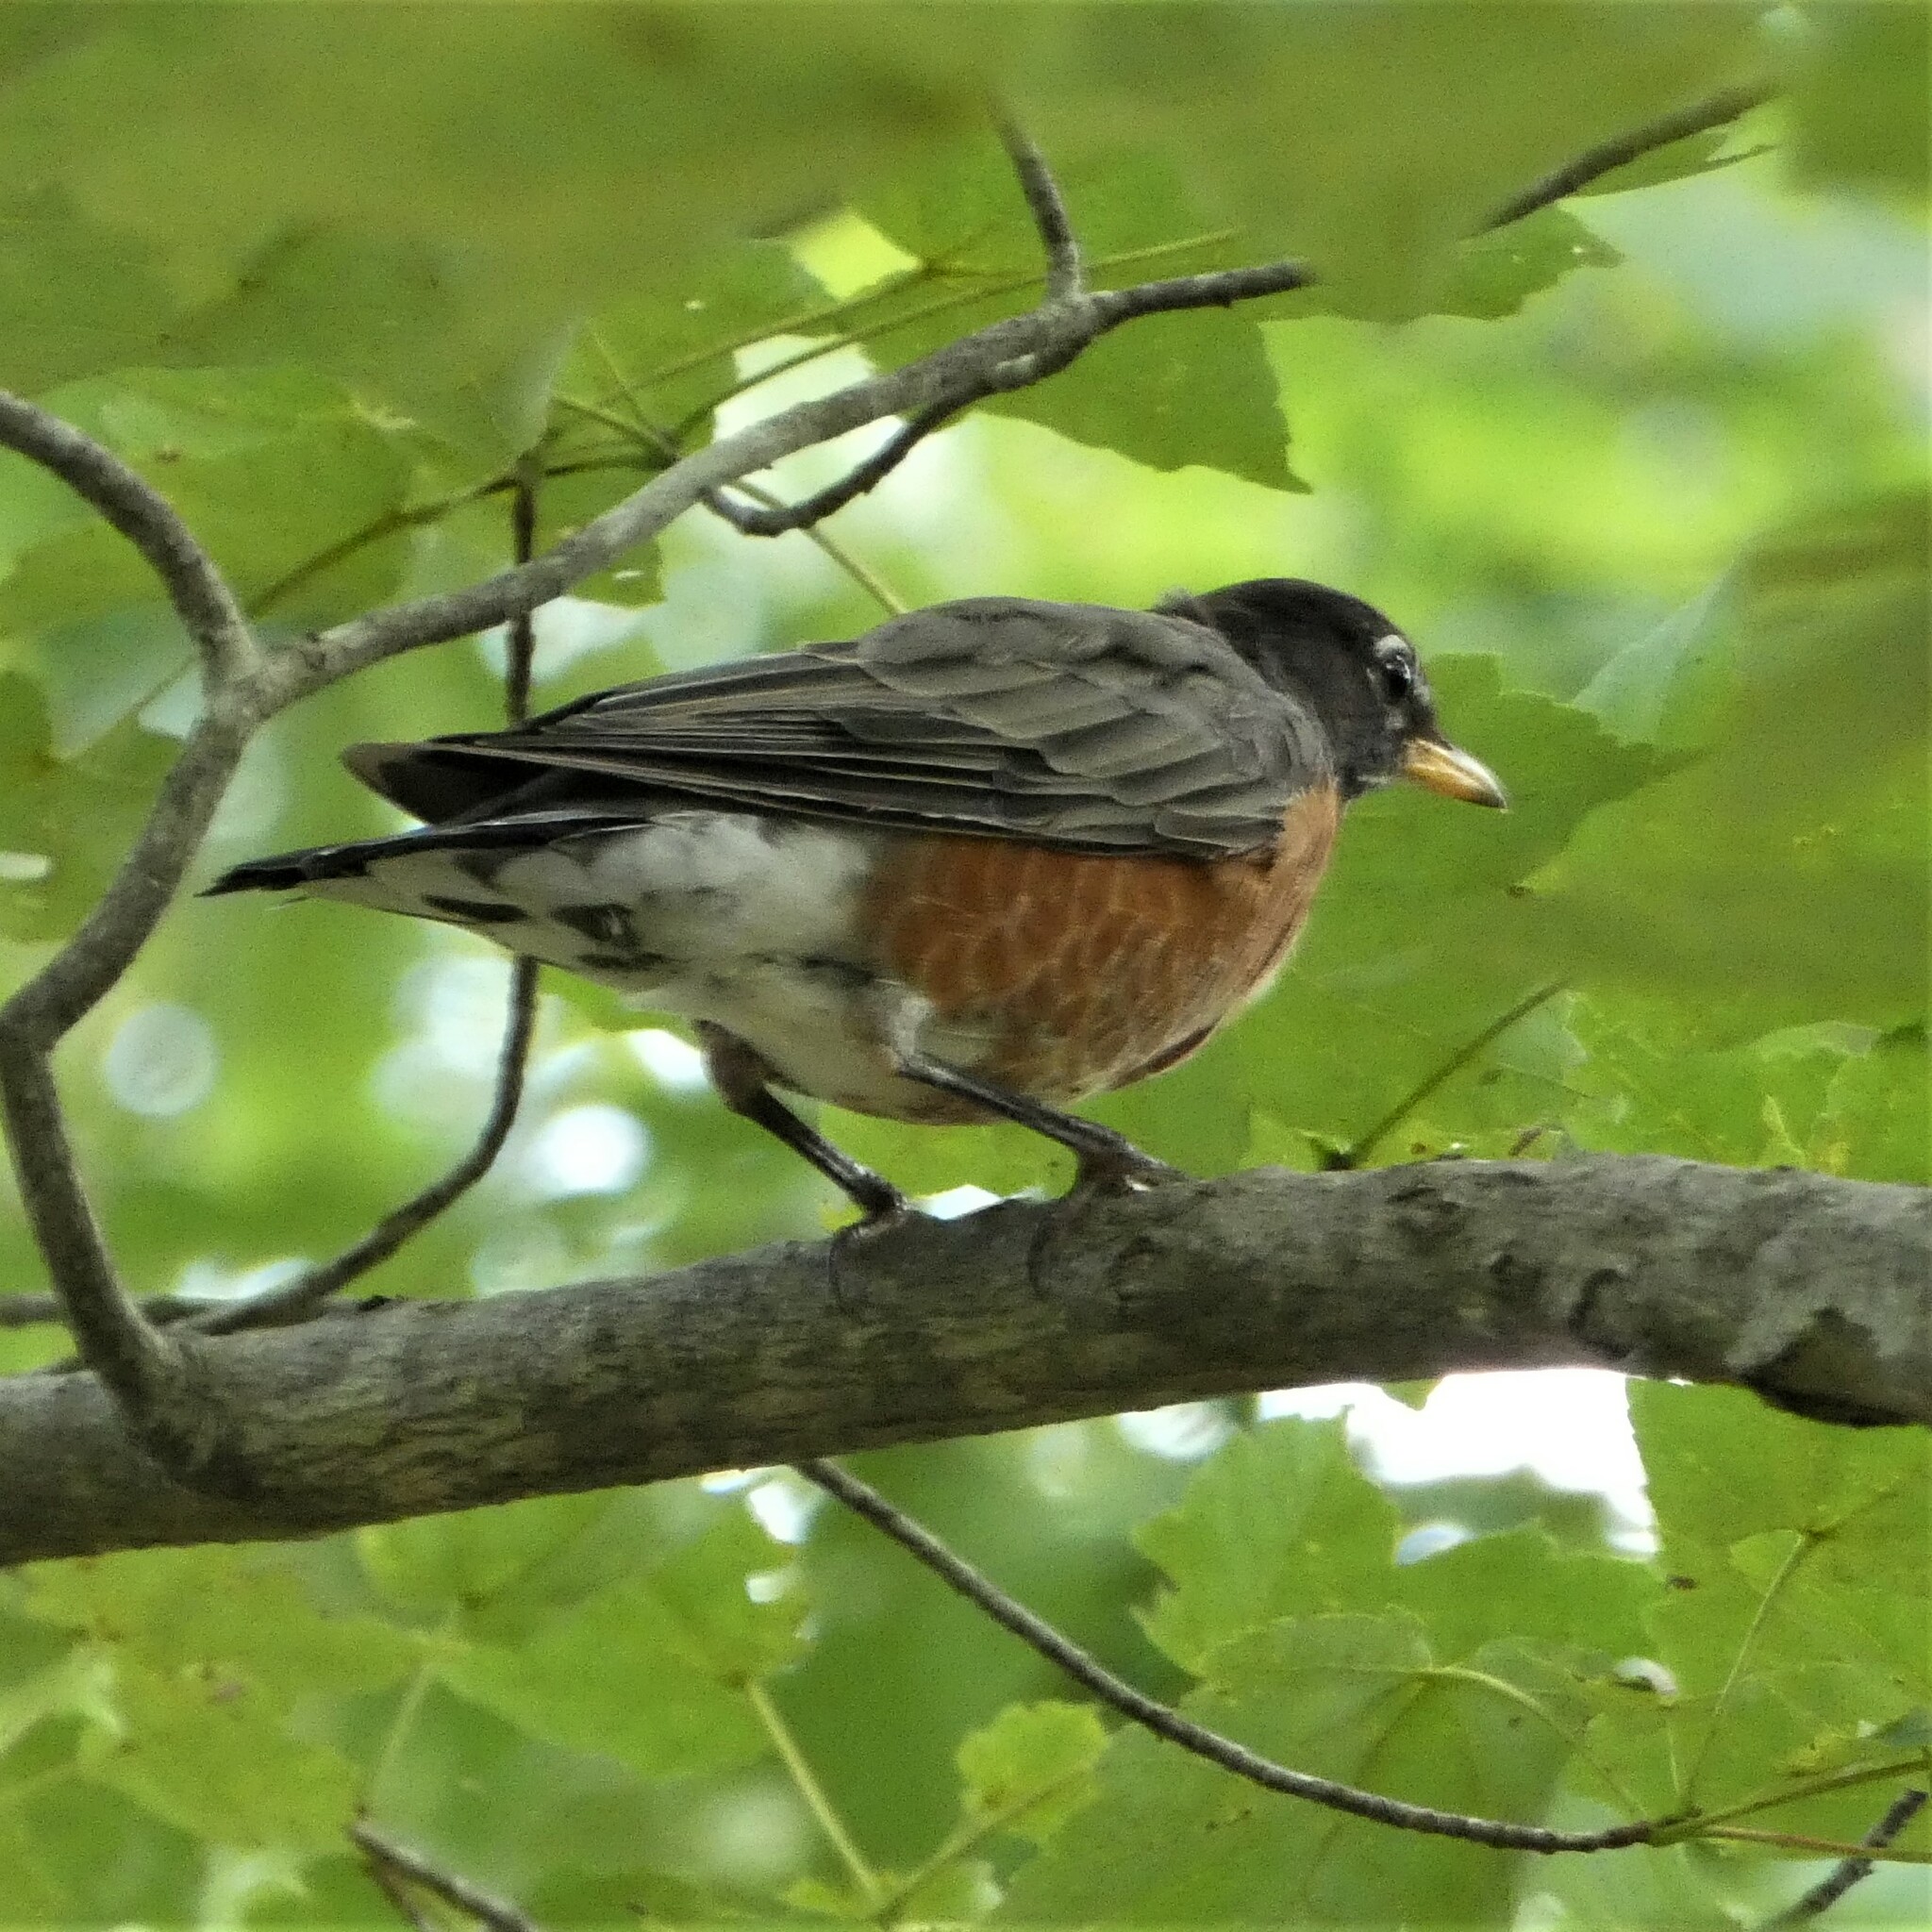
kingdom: Animalia
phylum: Chordata
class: Aves
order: Passeriformes
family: Turdidae
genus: Turdus
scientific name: Turdus migratorius
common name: American robin
